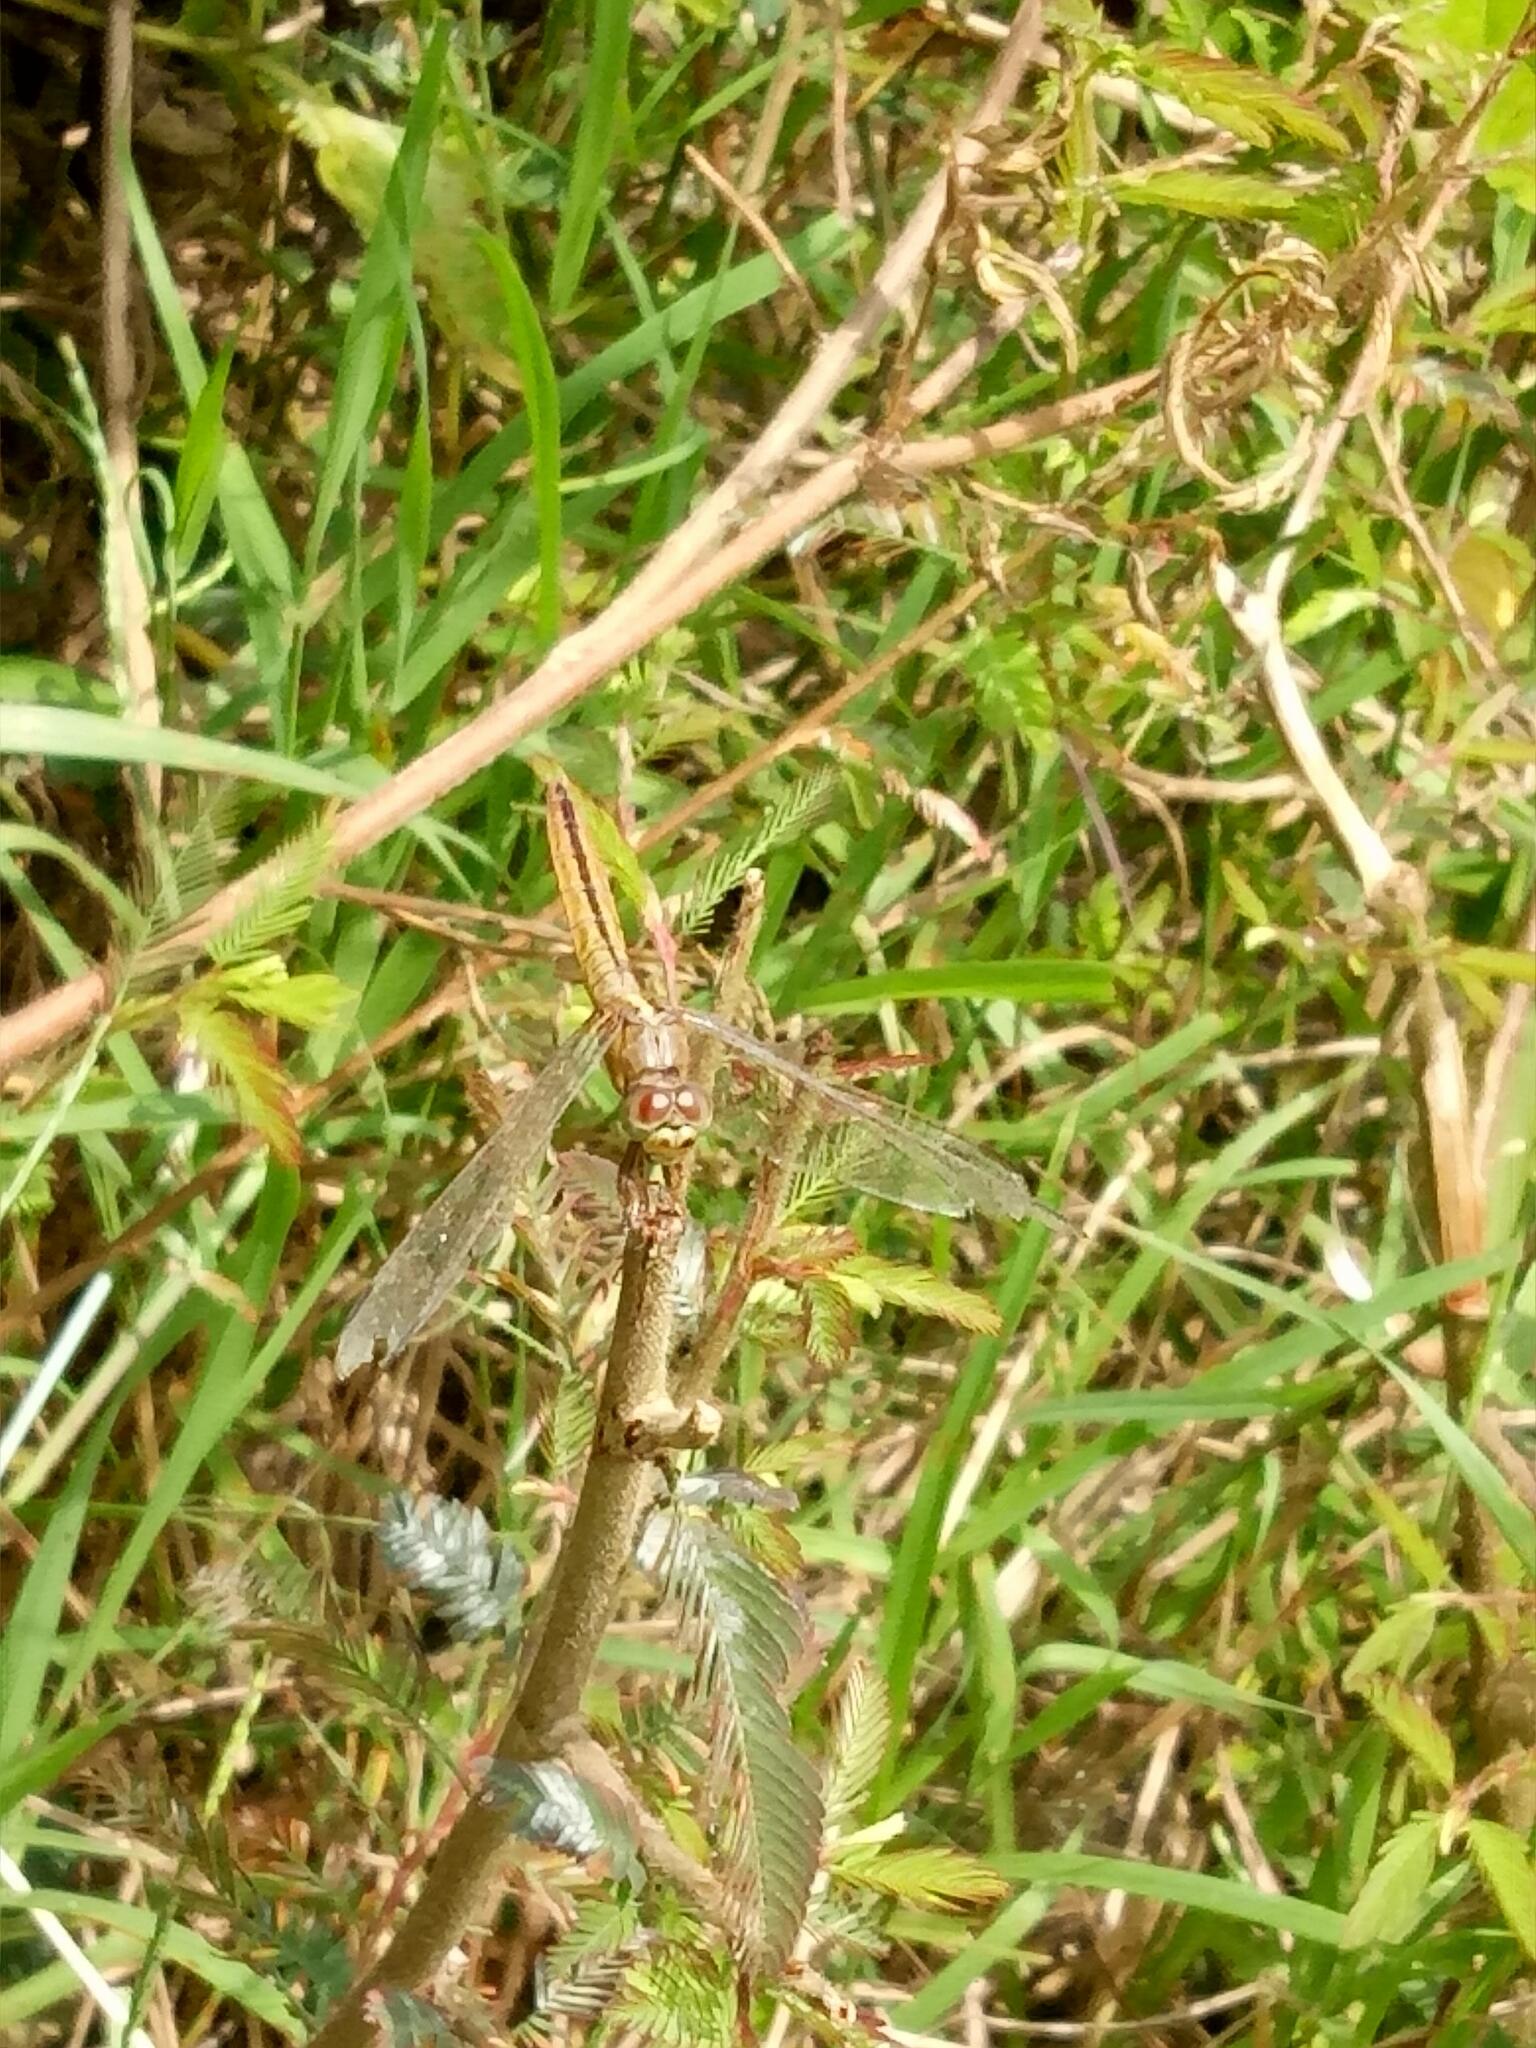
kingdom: Animalia
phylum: Arthropoda
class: Insecta
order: Odonata
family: Libellulidae
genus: Crocothemis
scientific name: Crocothemis servilia
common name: Scarlet skimmer
